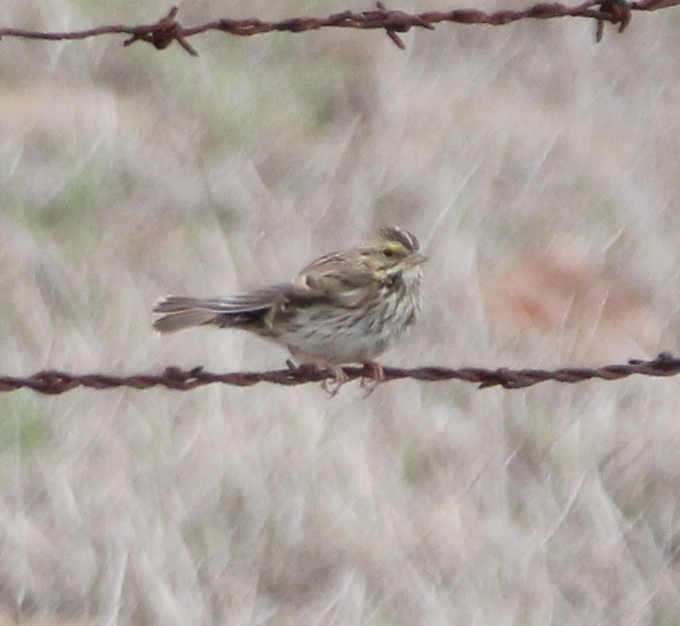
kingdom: Animalia
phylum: Chordata
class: Aves
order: Passeriformes
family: Passerellidae
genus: Passerculus
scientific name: Passerculus sandwichensis
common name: Savannah sparrow
